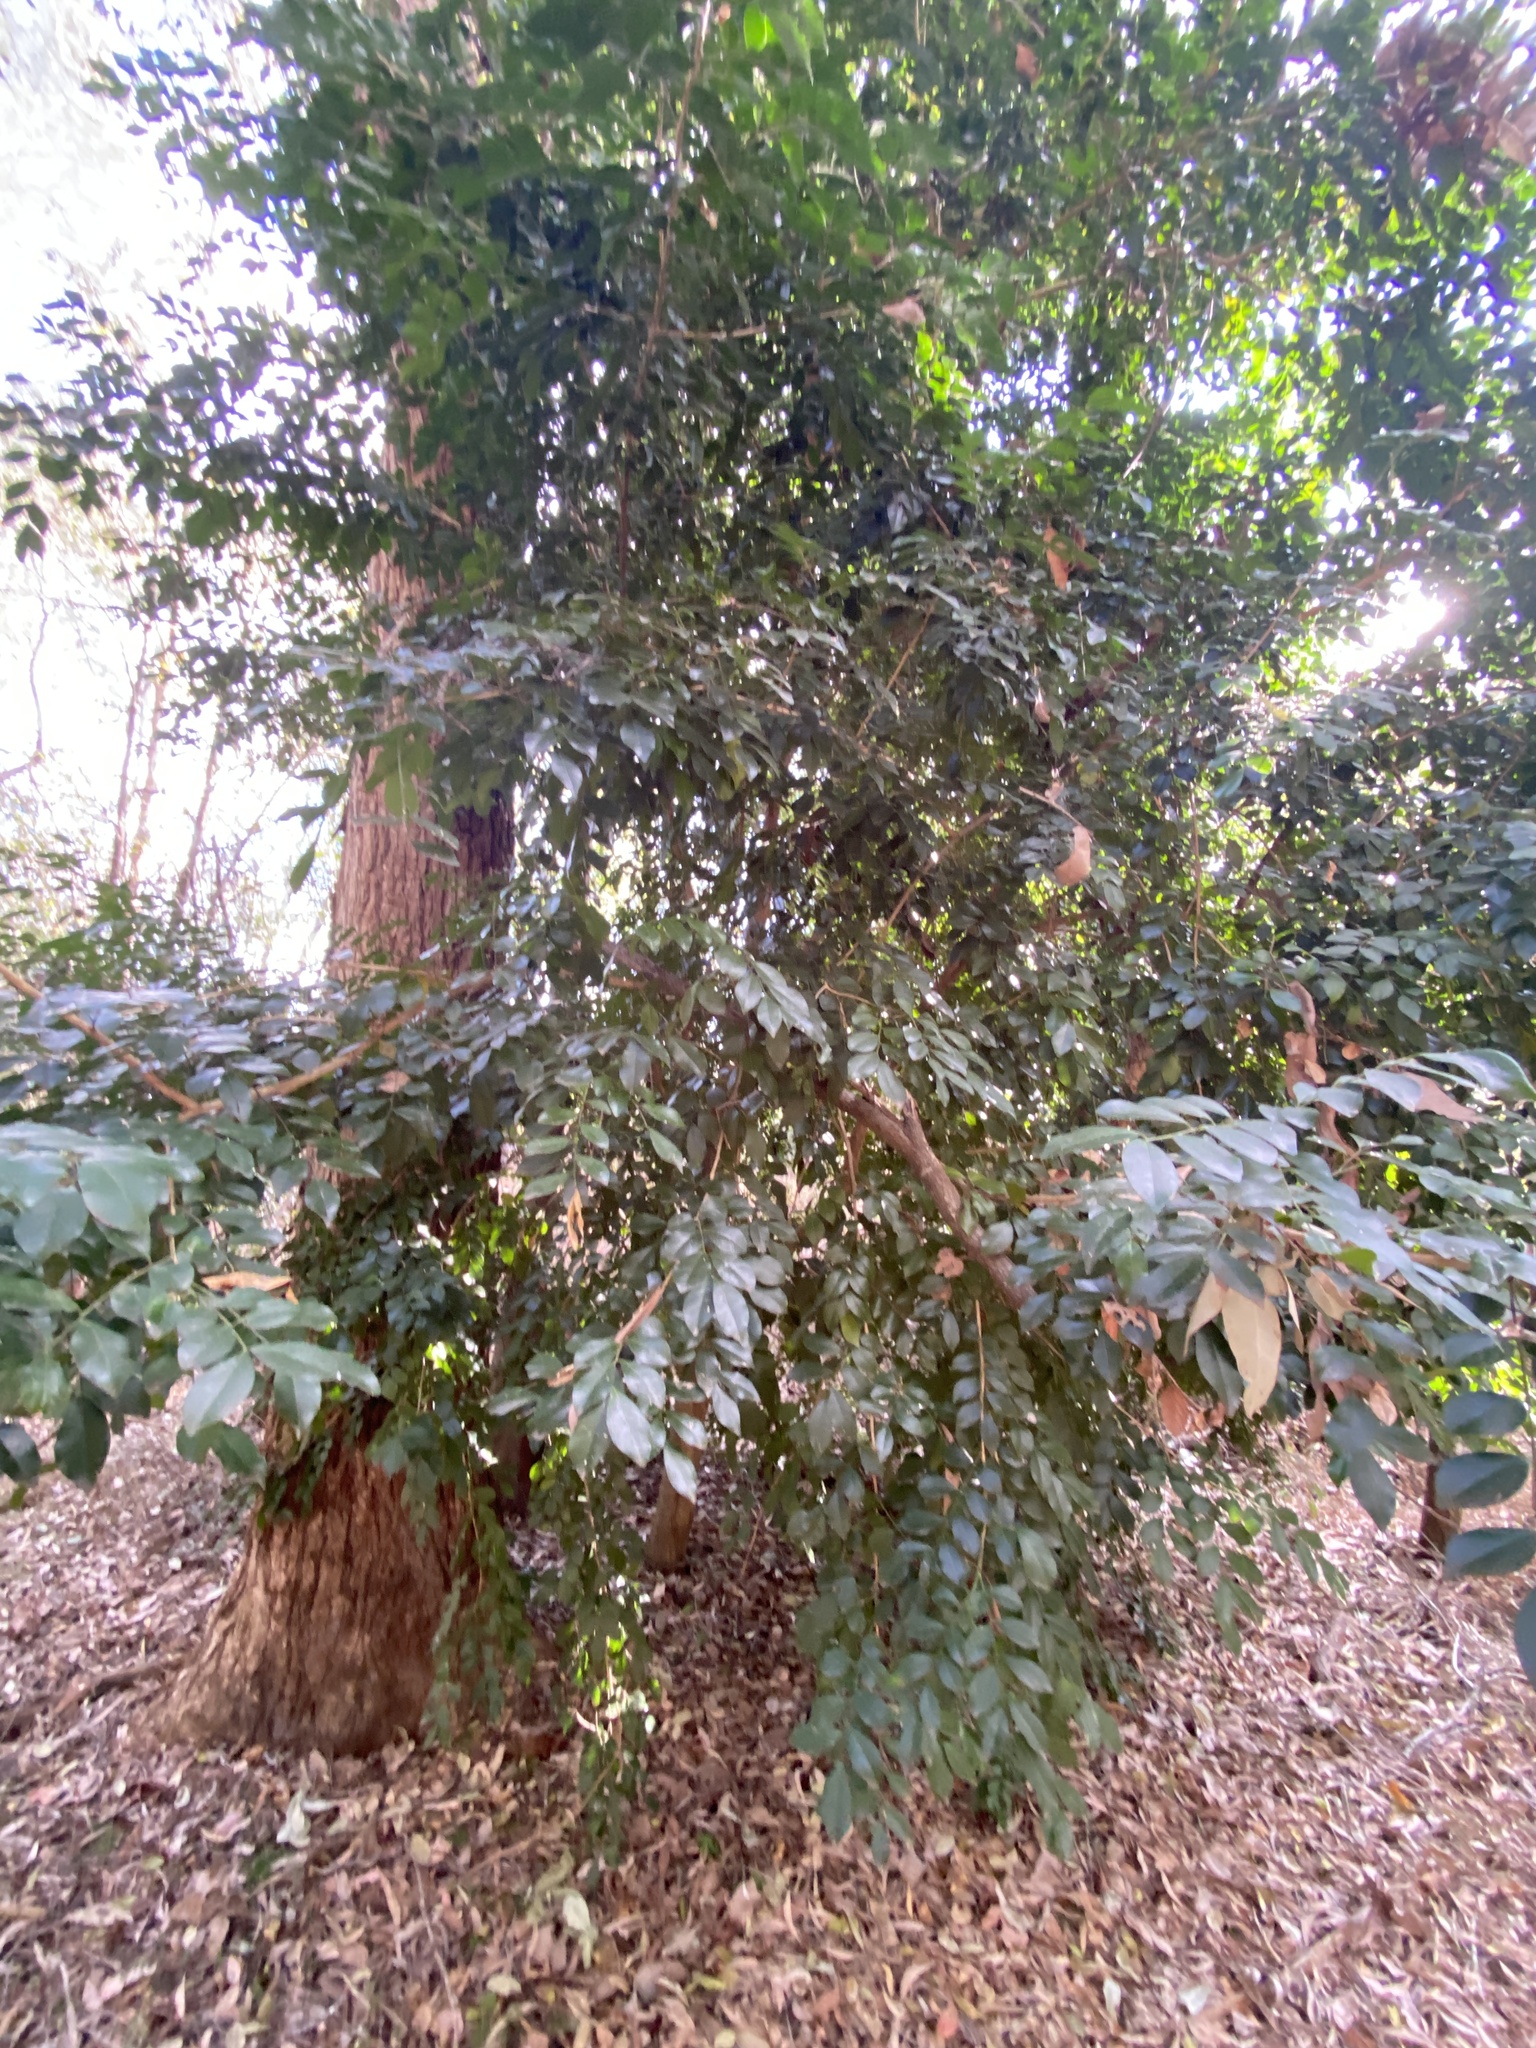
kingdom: Plantae
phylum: Tracheophyta
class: Magnoliopsida
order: Sapindales
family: Rutaceae
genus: Murraya
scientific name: Murraya paniculata
